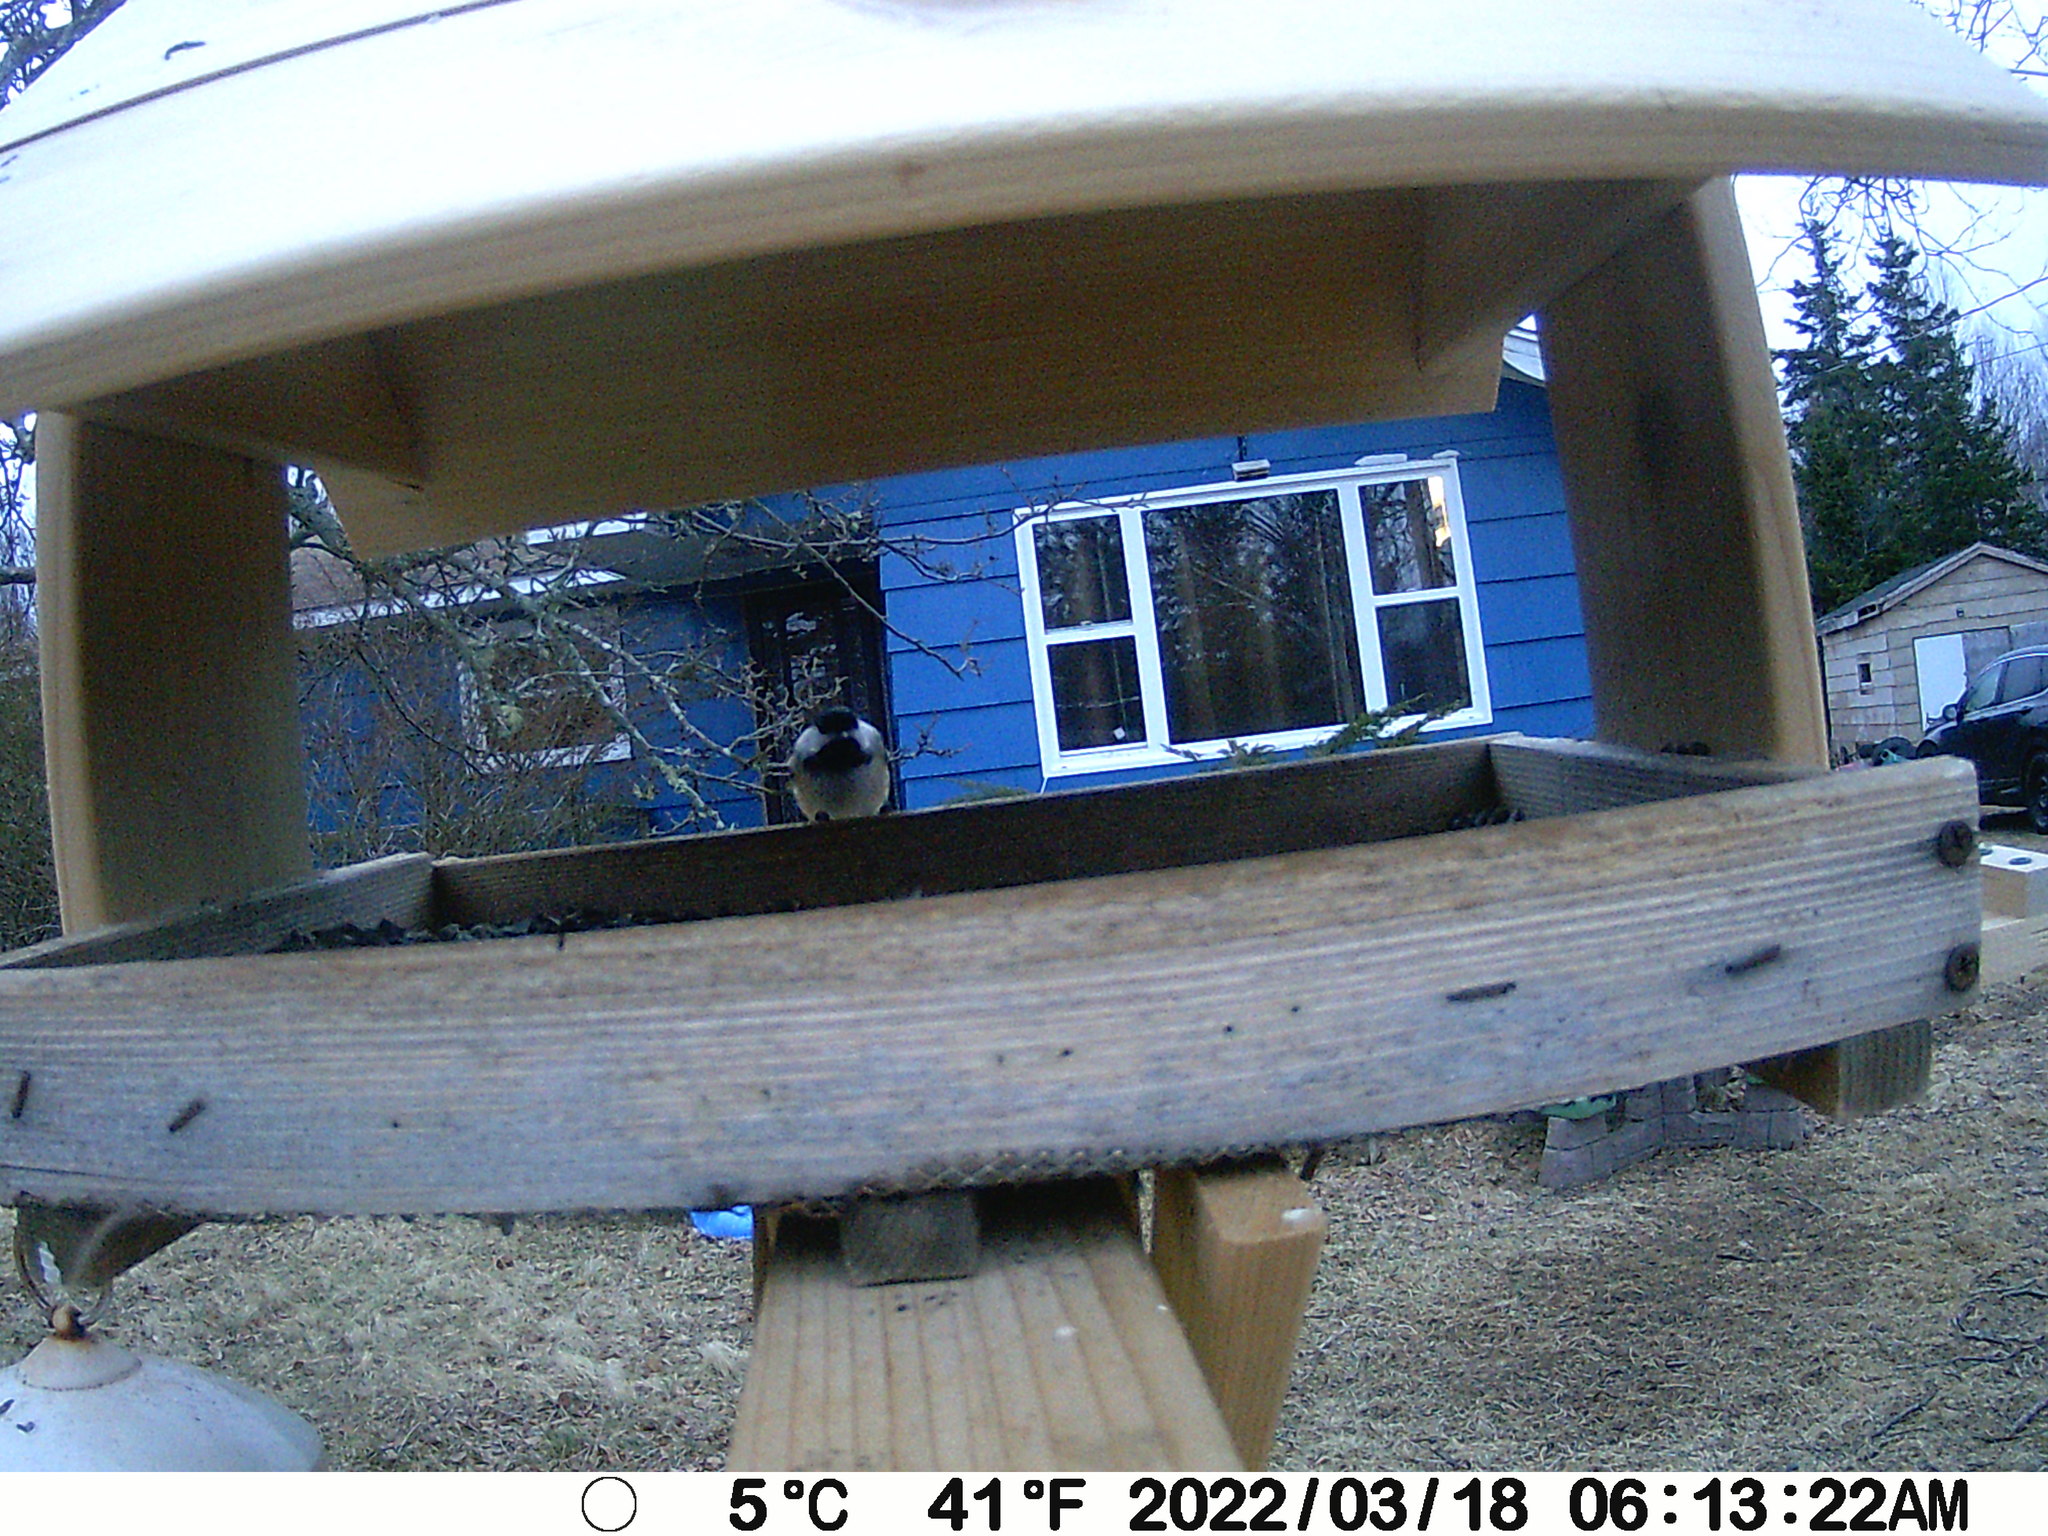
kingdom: Animalia
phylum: Chordata
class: Aves
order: Passeriformes
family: Paridae
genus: Poecile
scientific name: Poecile atricapillus
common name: Black-capped chickadee
